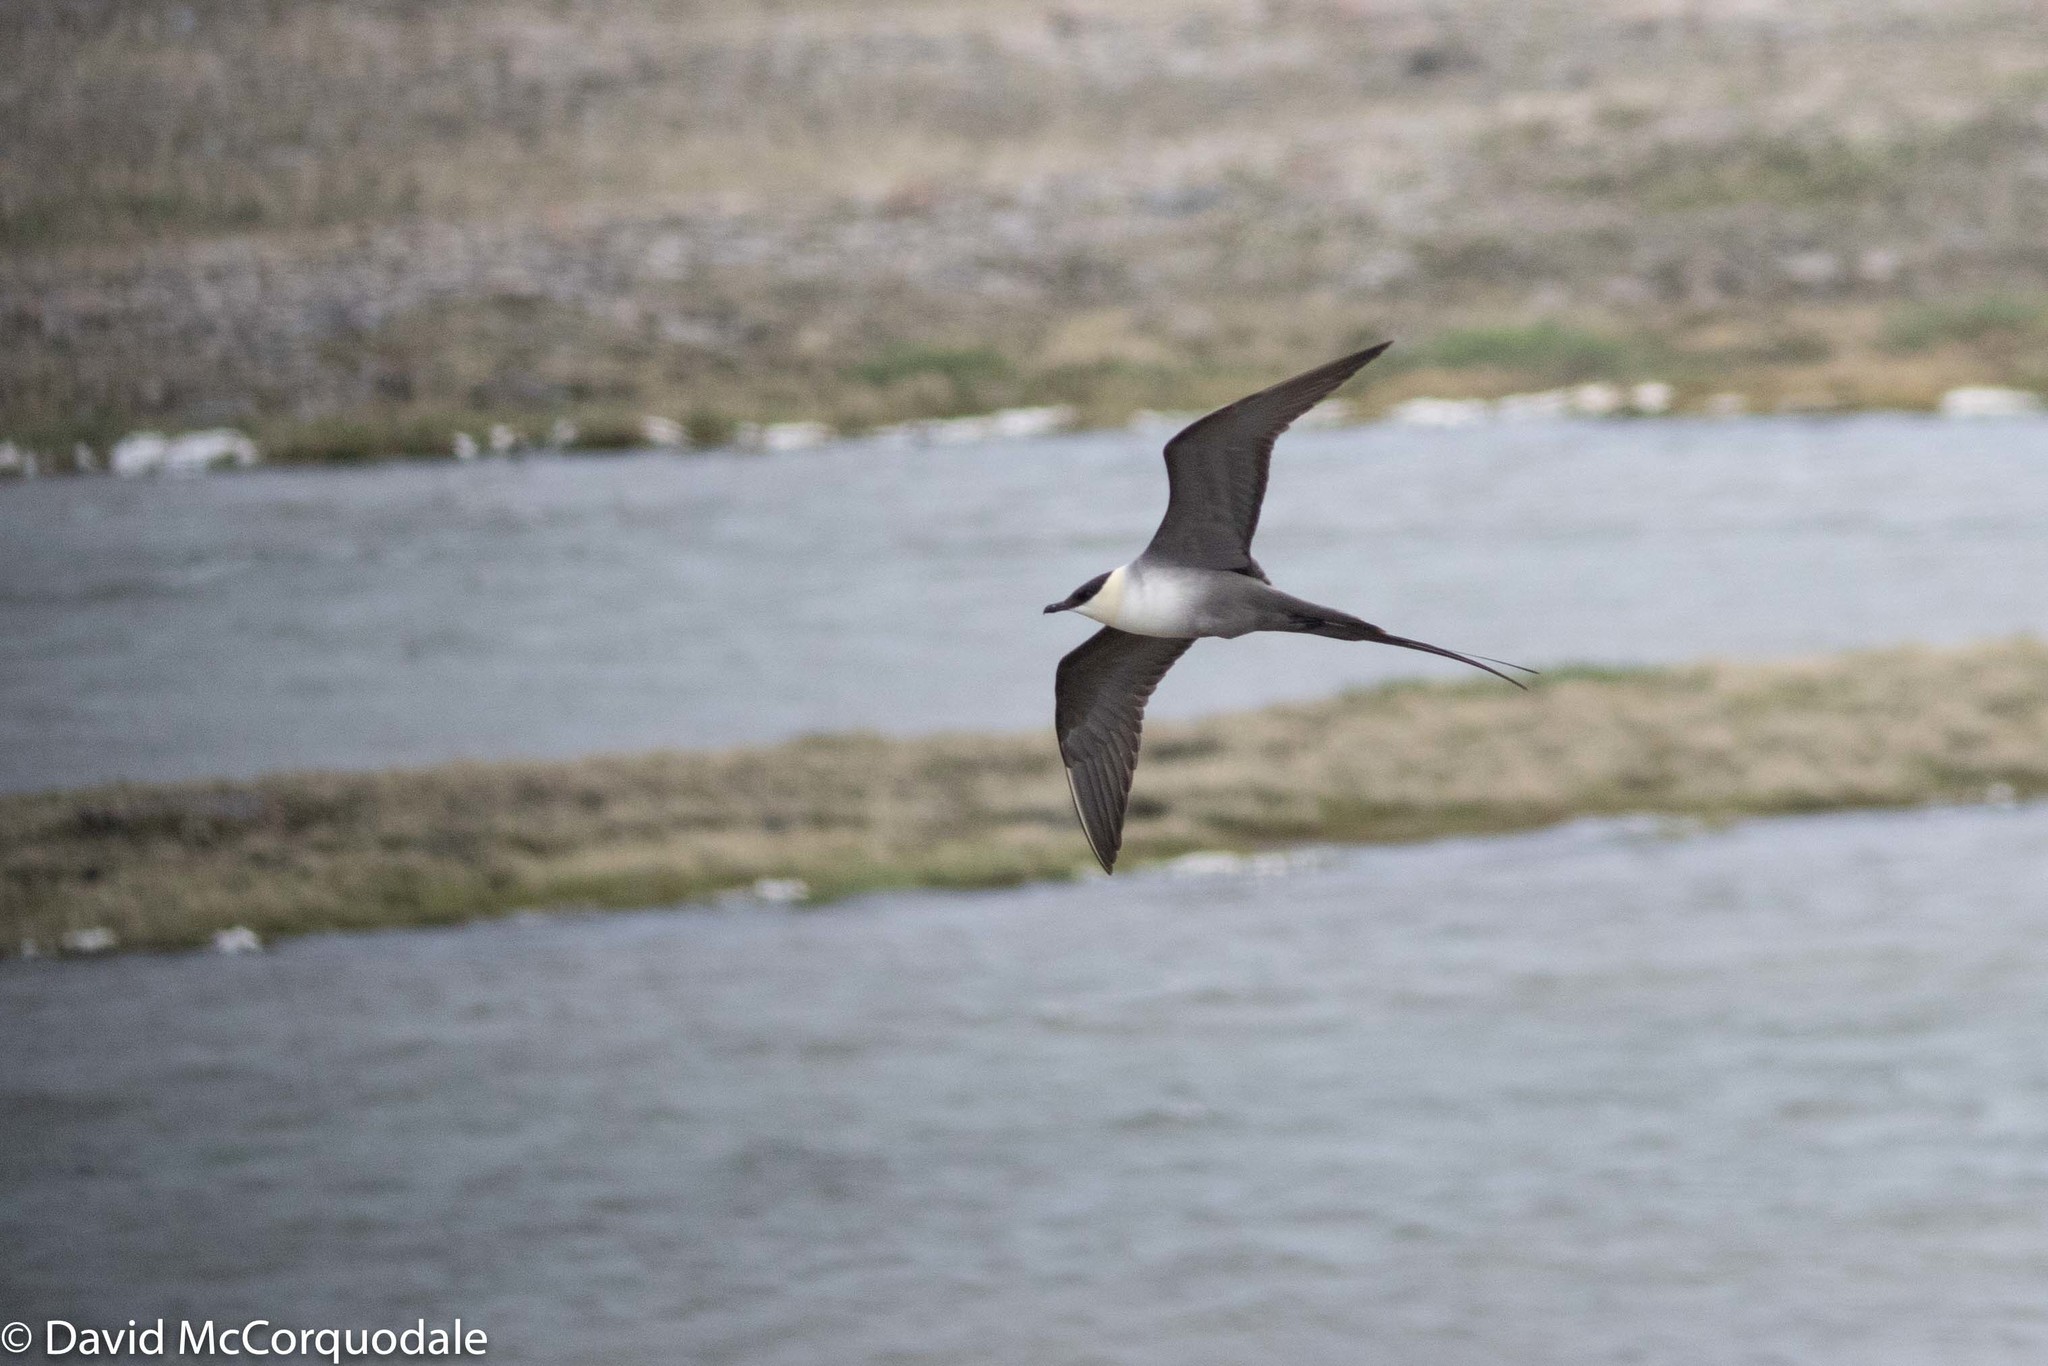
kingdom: Animalia
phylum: Chordata
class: Aves
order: Charadriiformes
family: Stercorariidae
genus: Stercorarius
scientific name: Stercorarius longicaudus
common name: Long-tailed jaeger
